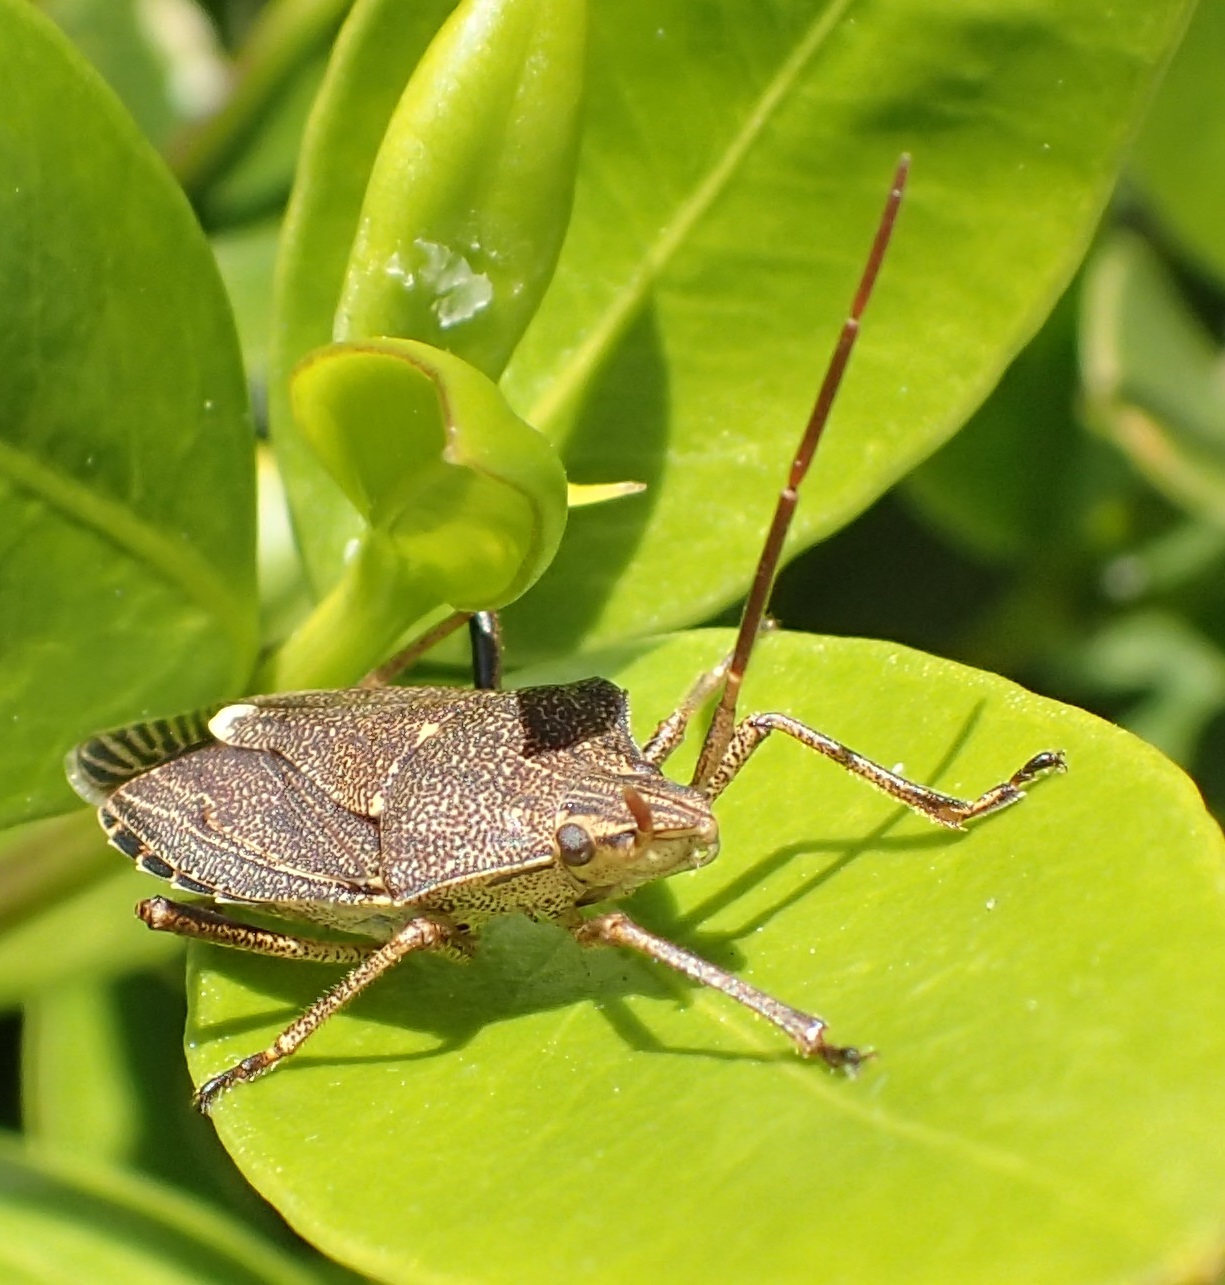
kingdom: Animalia
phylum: Arthropoda
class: Insecta
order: Hemiptera
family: Pentatomidae
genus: Poecilometis
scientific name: Poecilometis lineatus
